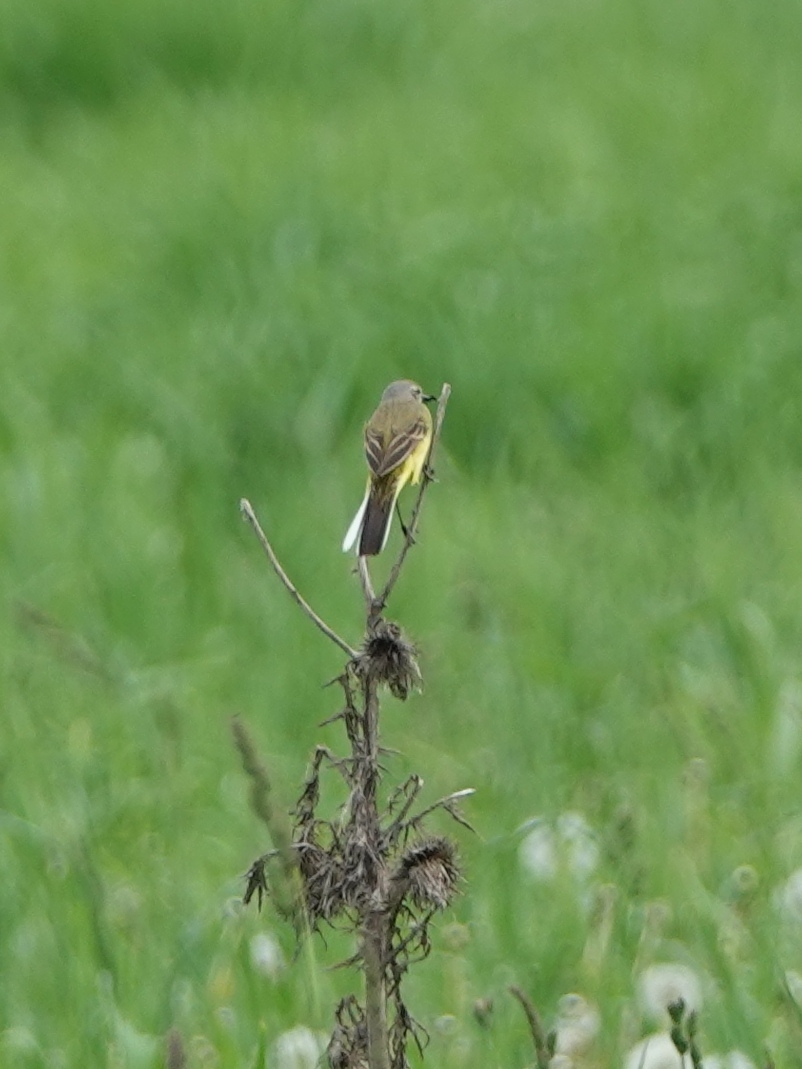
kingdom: Animalia
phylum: Chordata
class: Aves
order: Passeriformes
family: Motacillidae
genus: Motacilla
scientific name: Motacilla flava
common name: Western yellow wagtail
